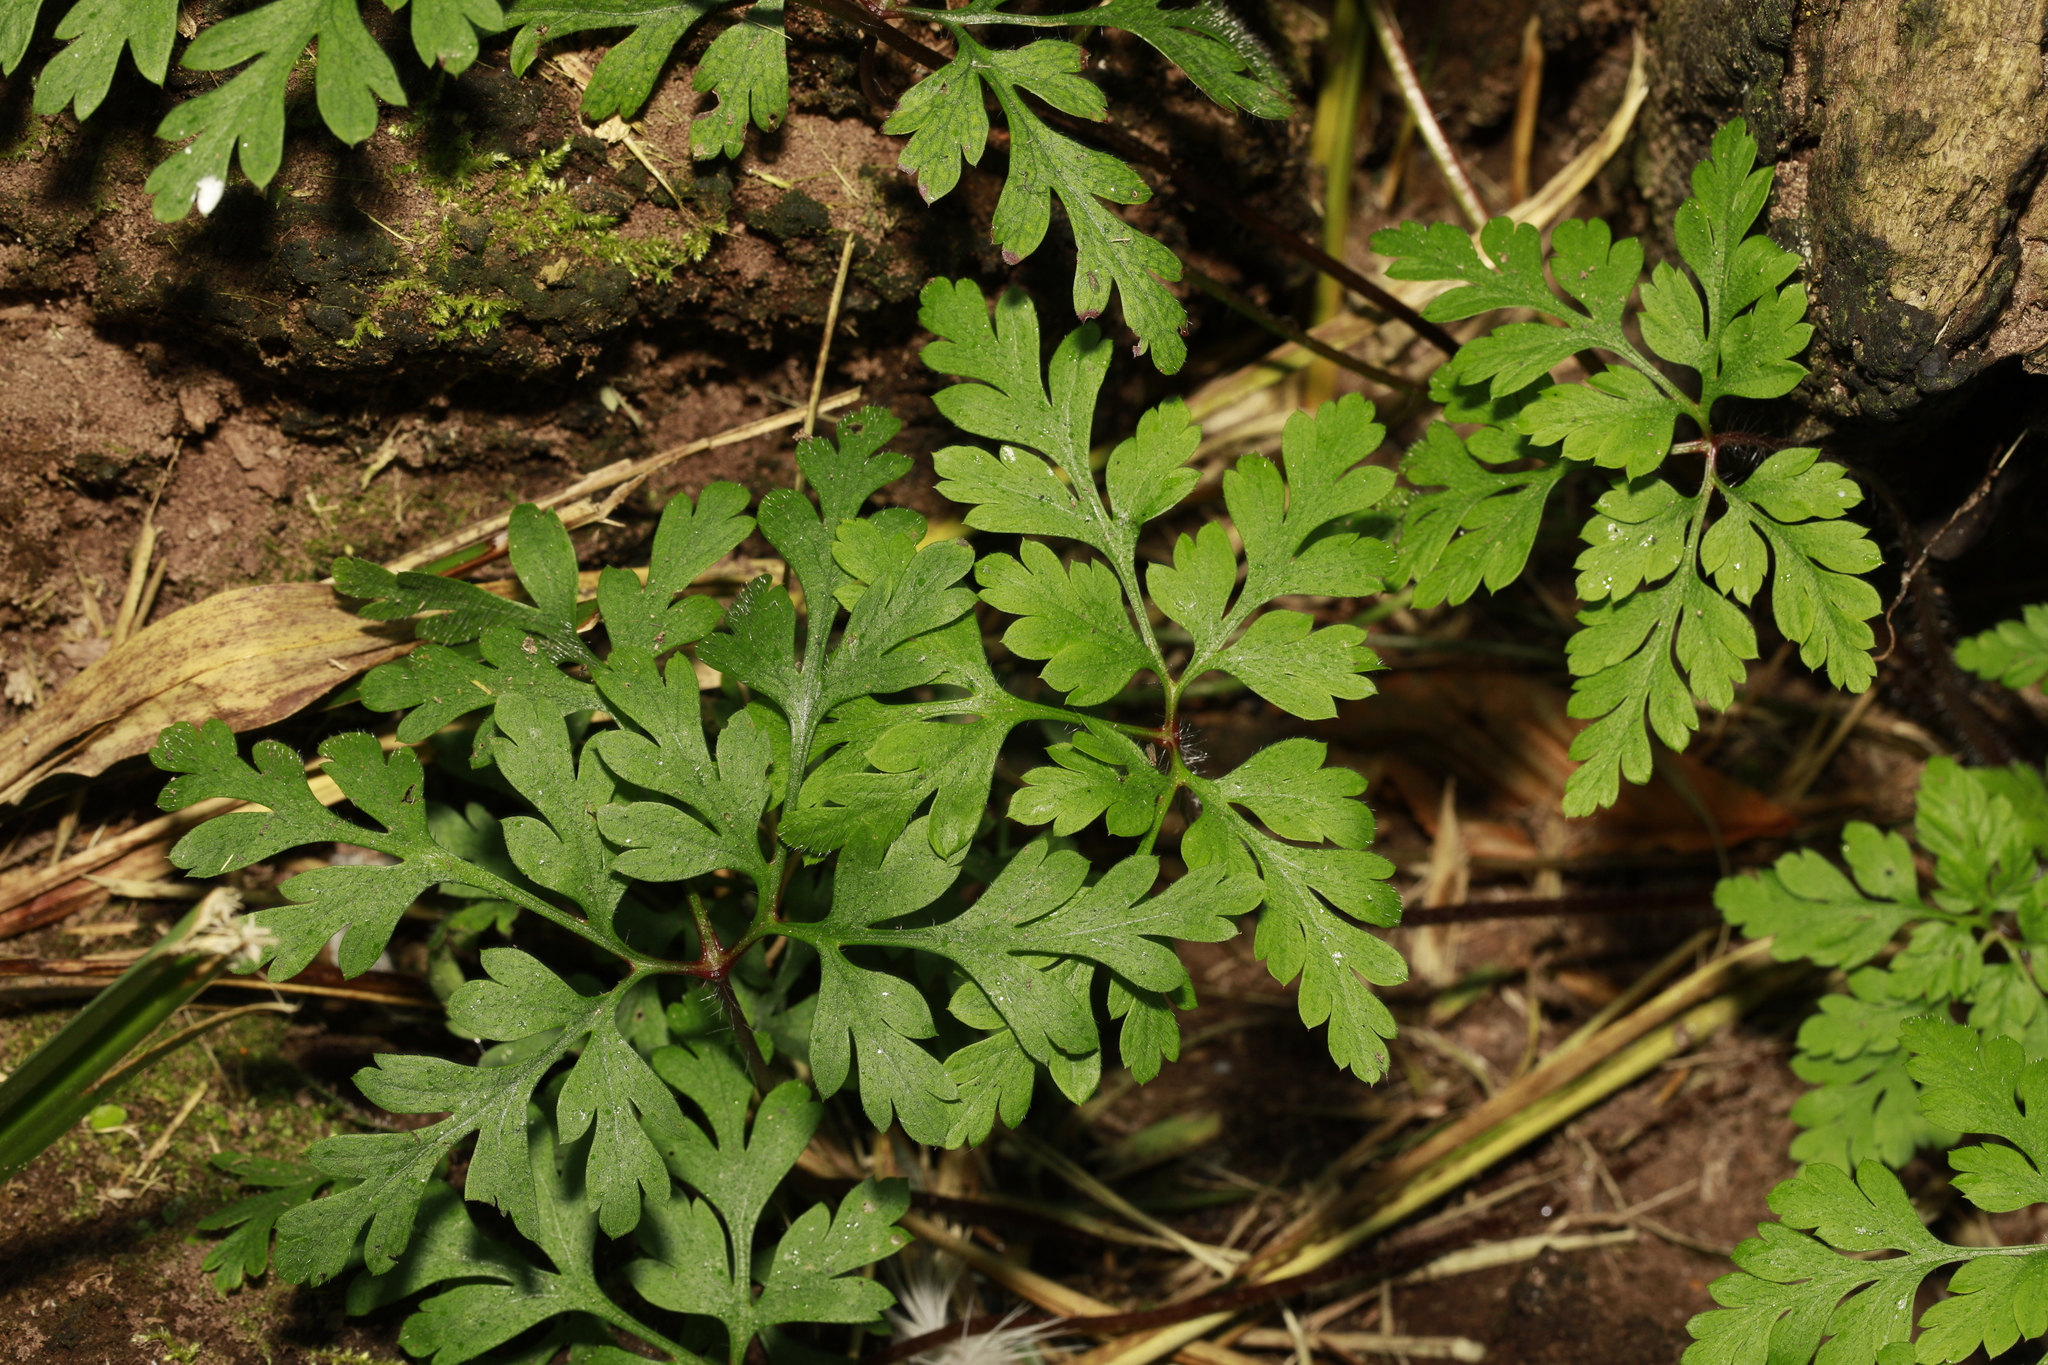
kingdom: Plantae
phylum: Tracheophyta
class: Magnoliopsida
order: Geraniales
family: Geraniaceae
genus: Geranium
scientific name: Geranium robertianum
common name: Herb-robert
